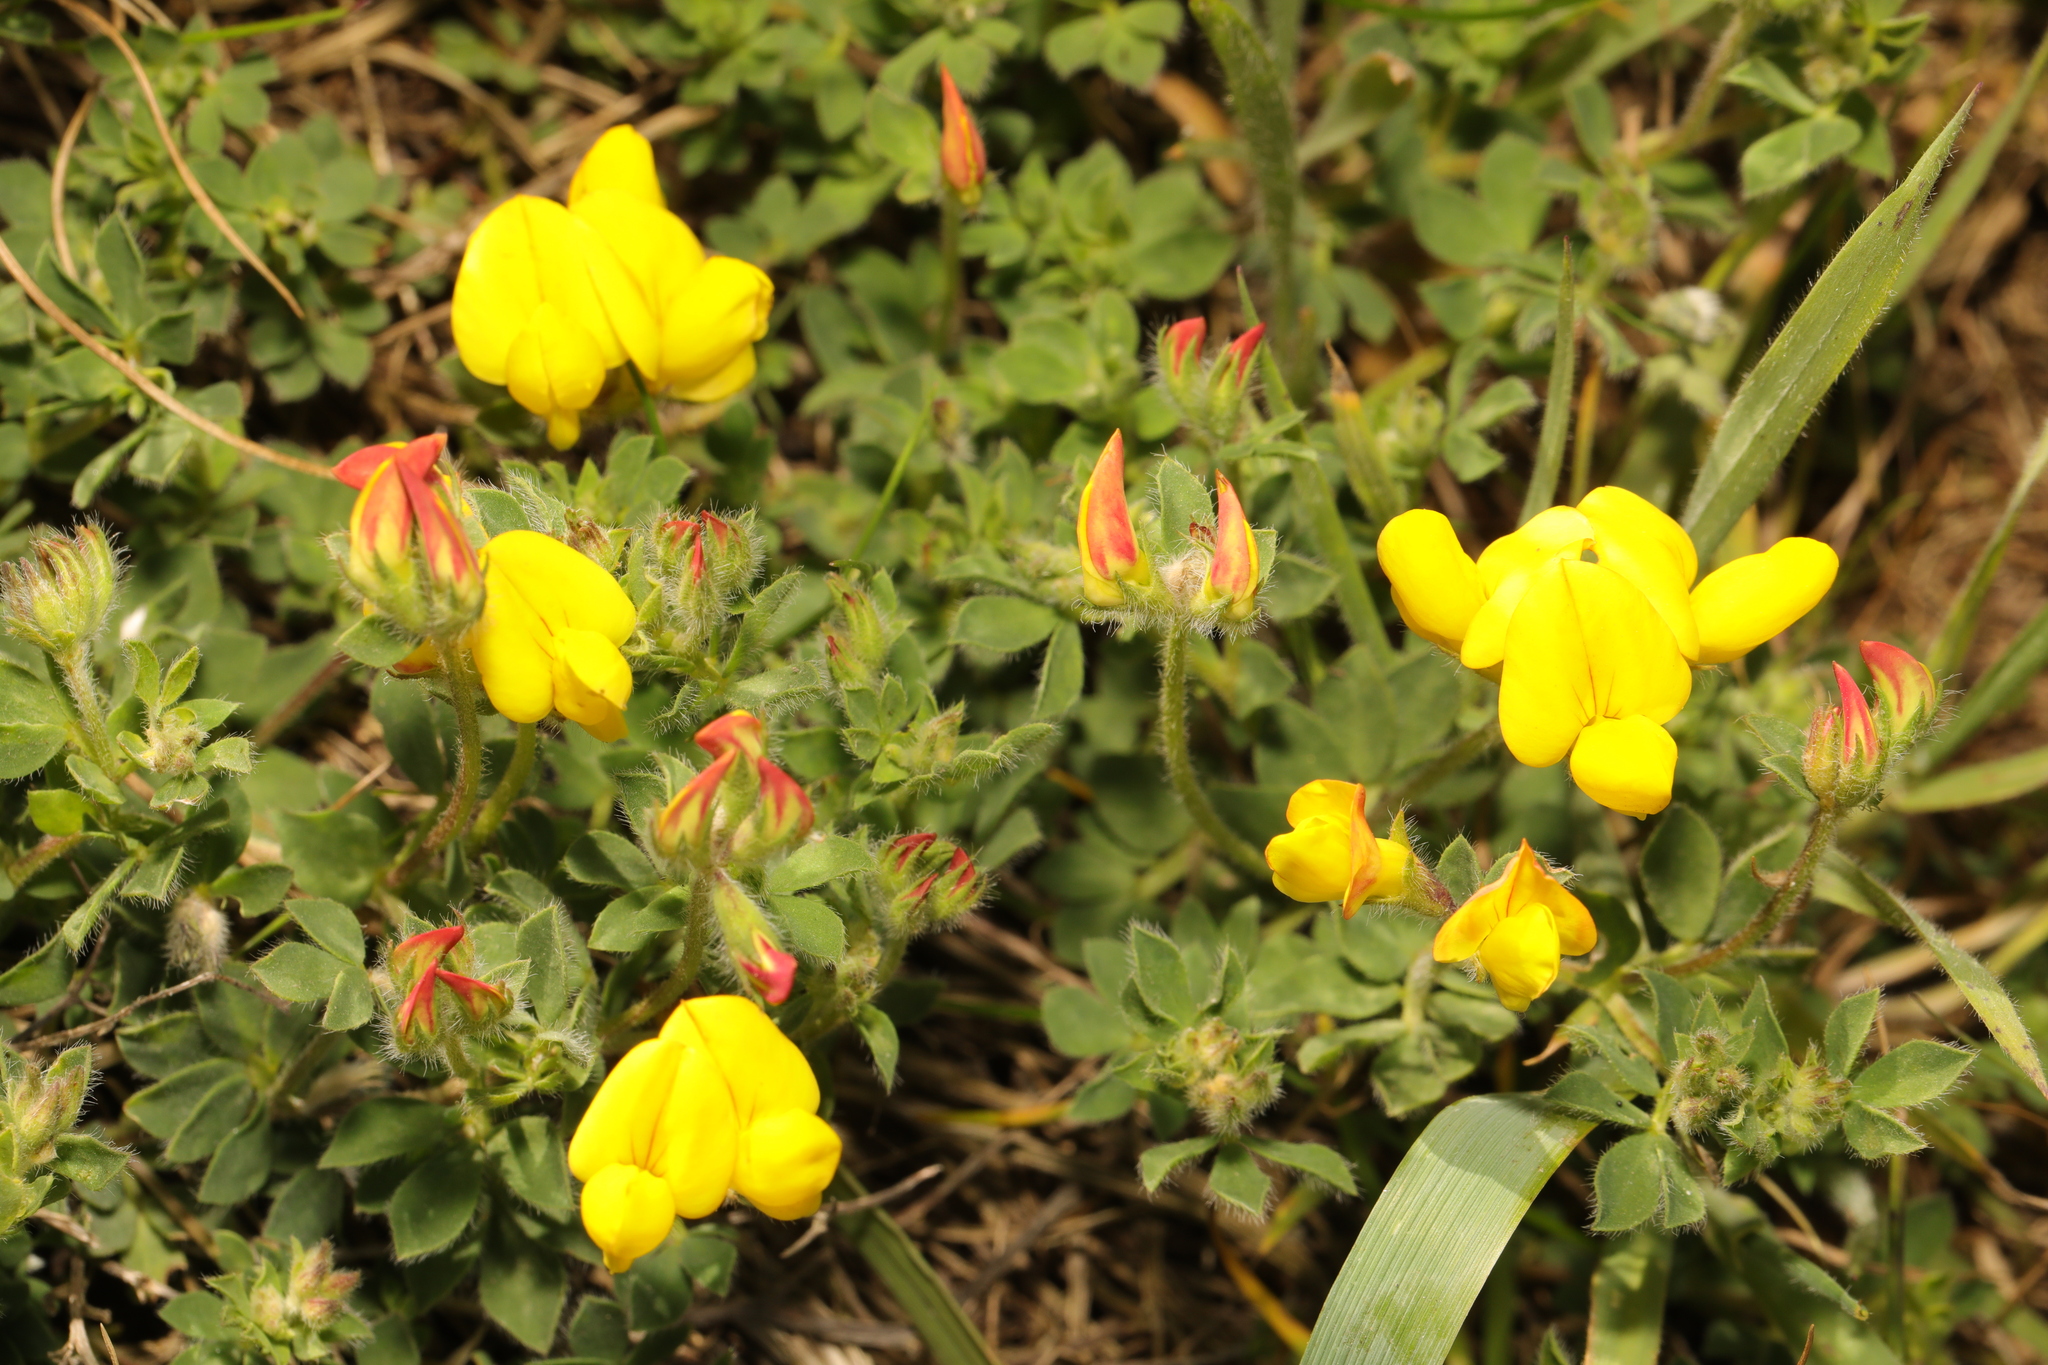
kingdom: Plantae
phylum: Tracheophyta
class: Magnoliopsida
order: Fabales
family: Fabaceae
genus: Lotus
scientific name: Lotus corniculatus
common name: Common bird's-foot-trefoil
